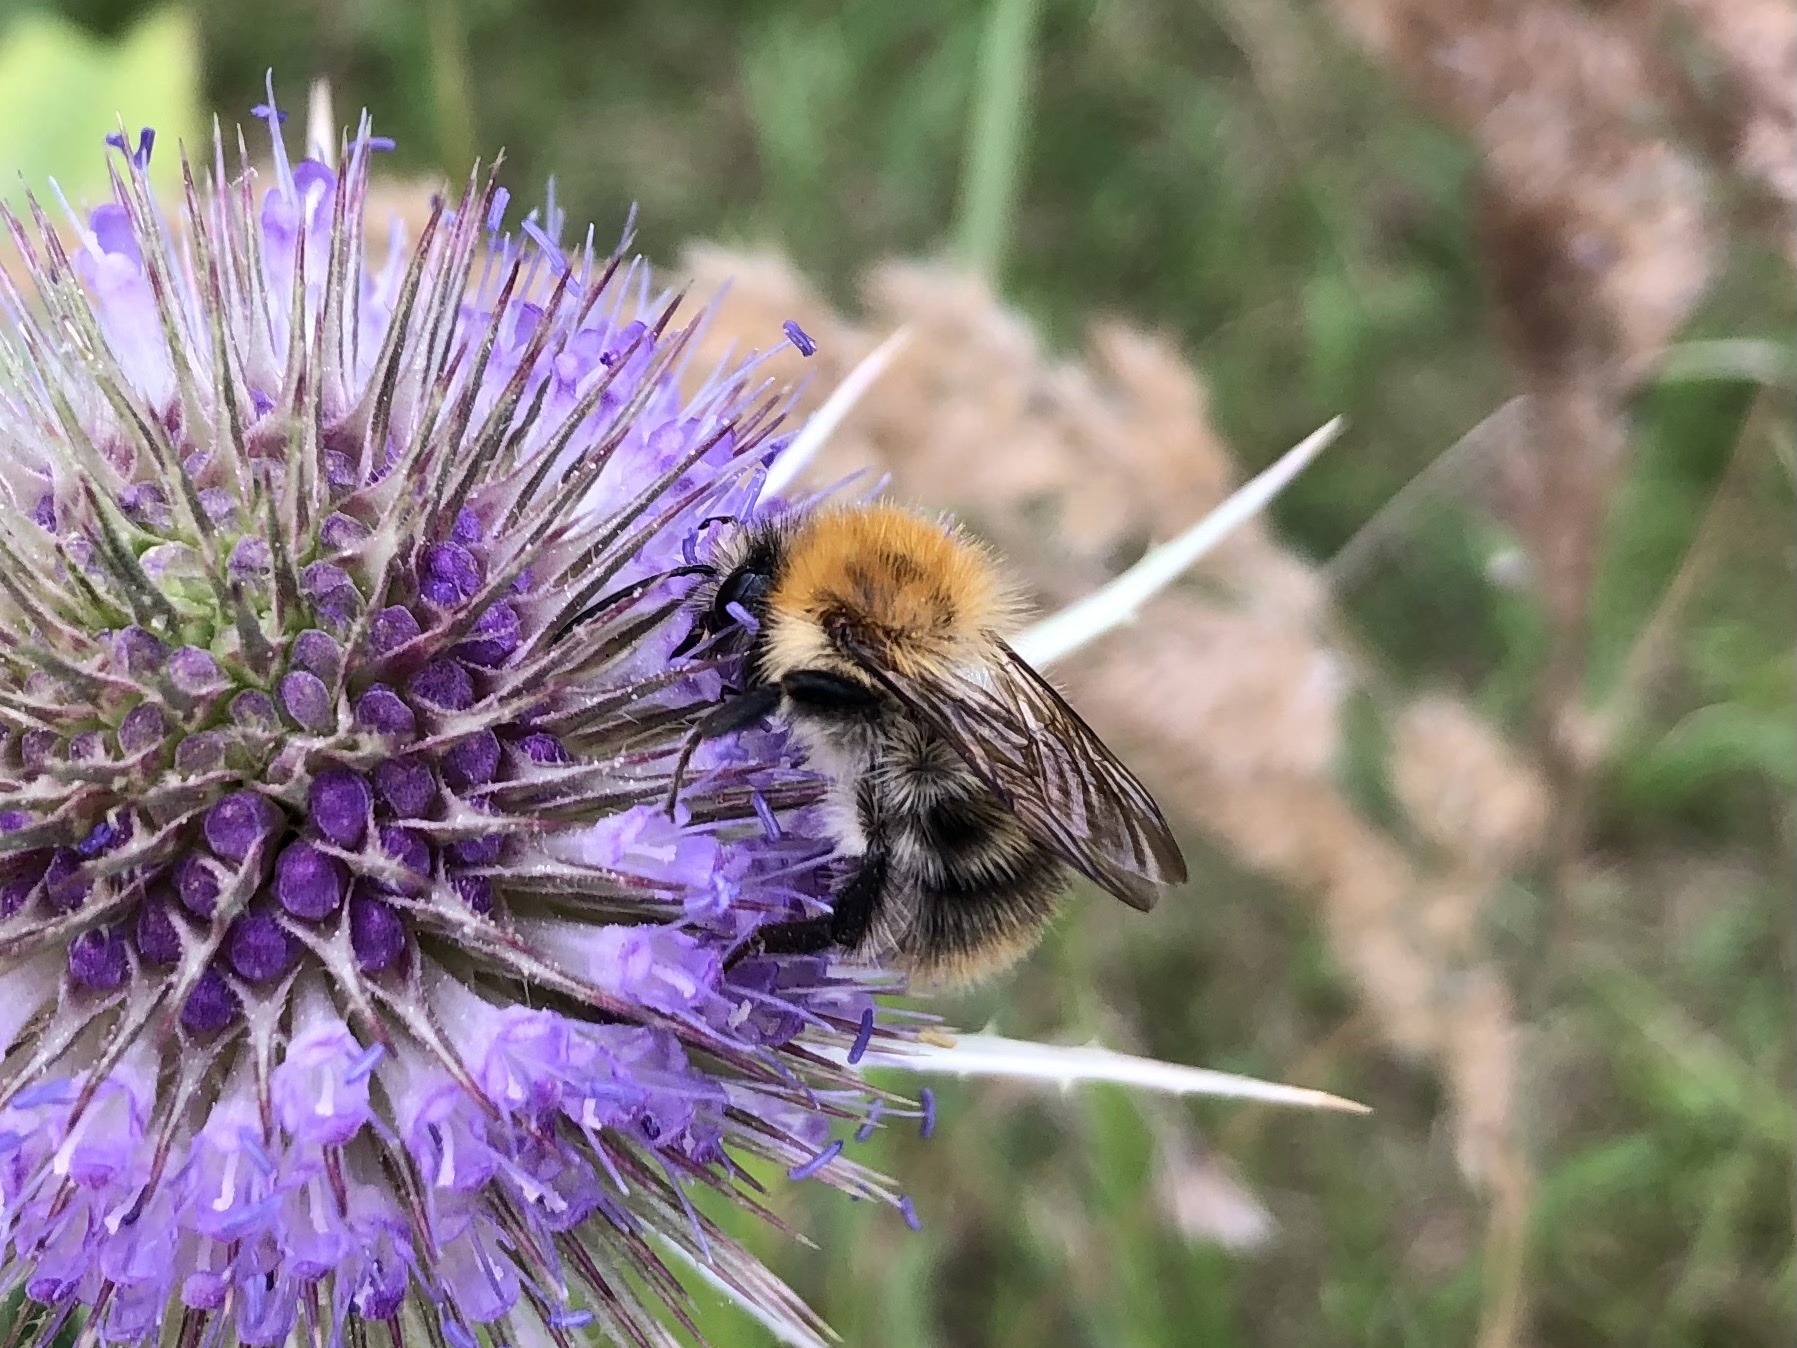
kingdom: Animalia
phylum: Arthropoda
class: Insecta
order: Hymenoptera
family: Apidae
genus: Bombus
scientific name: Bombus pascuorum
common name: Common carder bee
